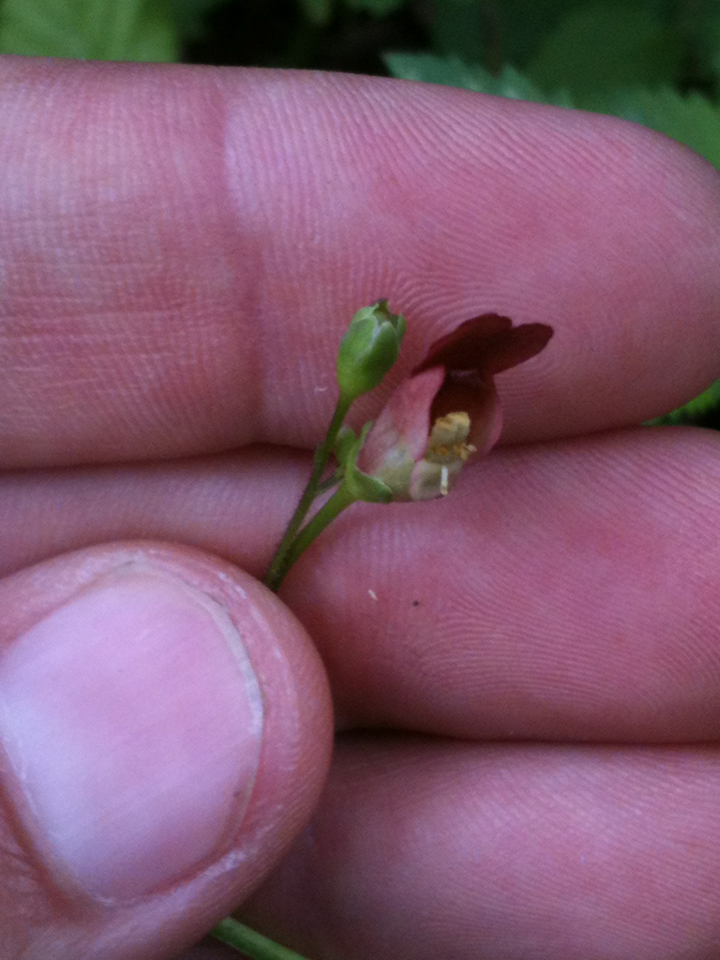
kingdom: Plantae
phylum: Tracheophyta
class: Magnoliopsida
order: Lamiales
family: Scrophulariaceae
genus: Scrophularia
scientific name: Scrophularia californica
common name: California figwort
